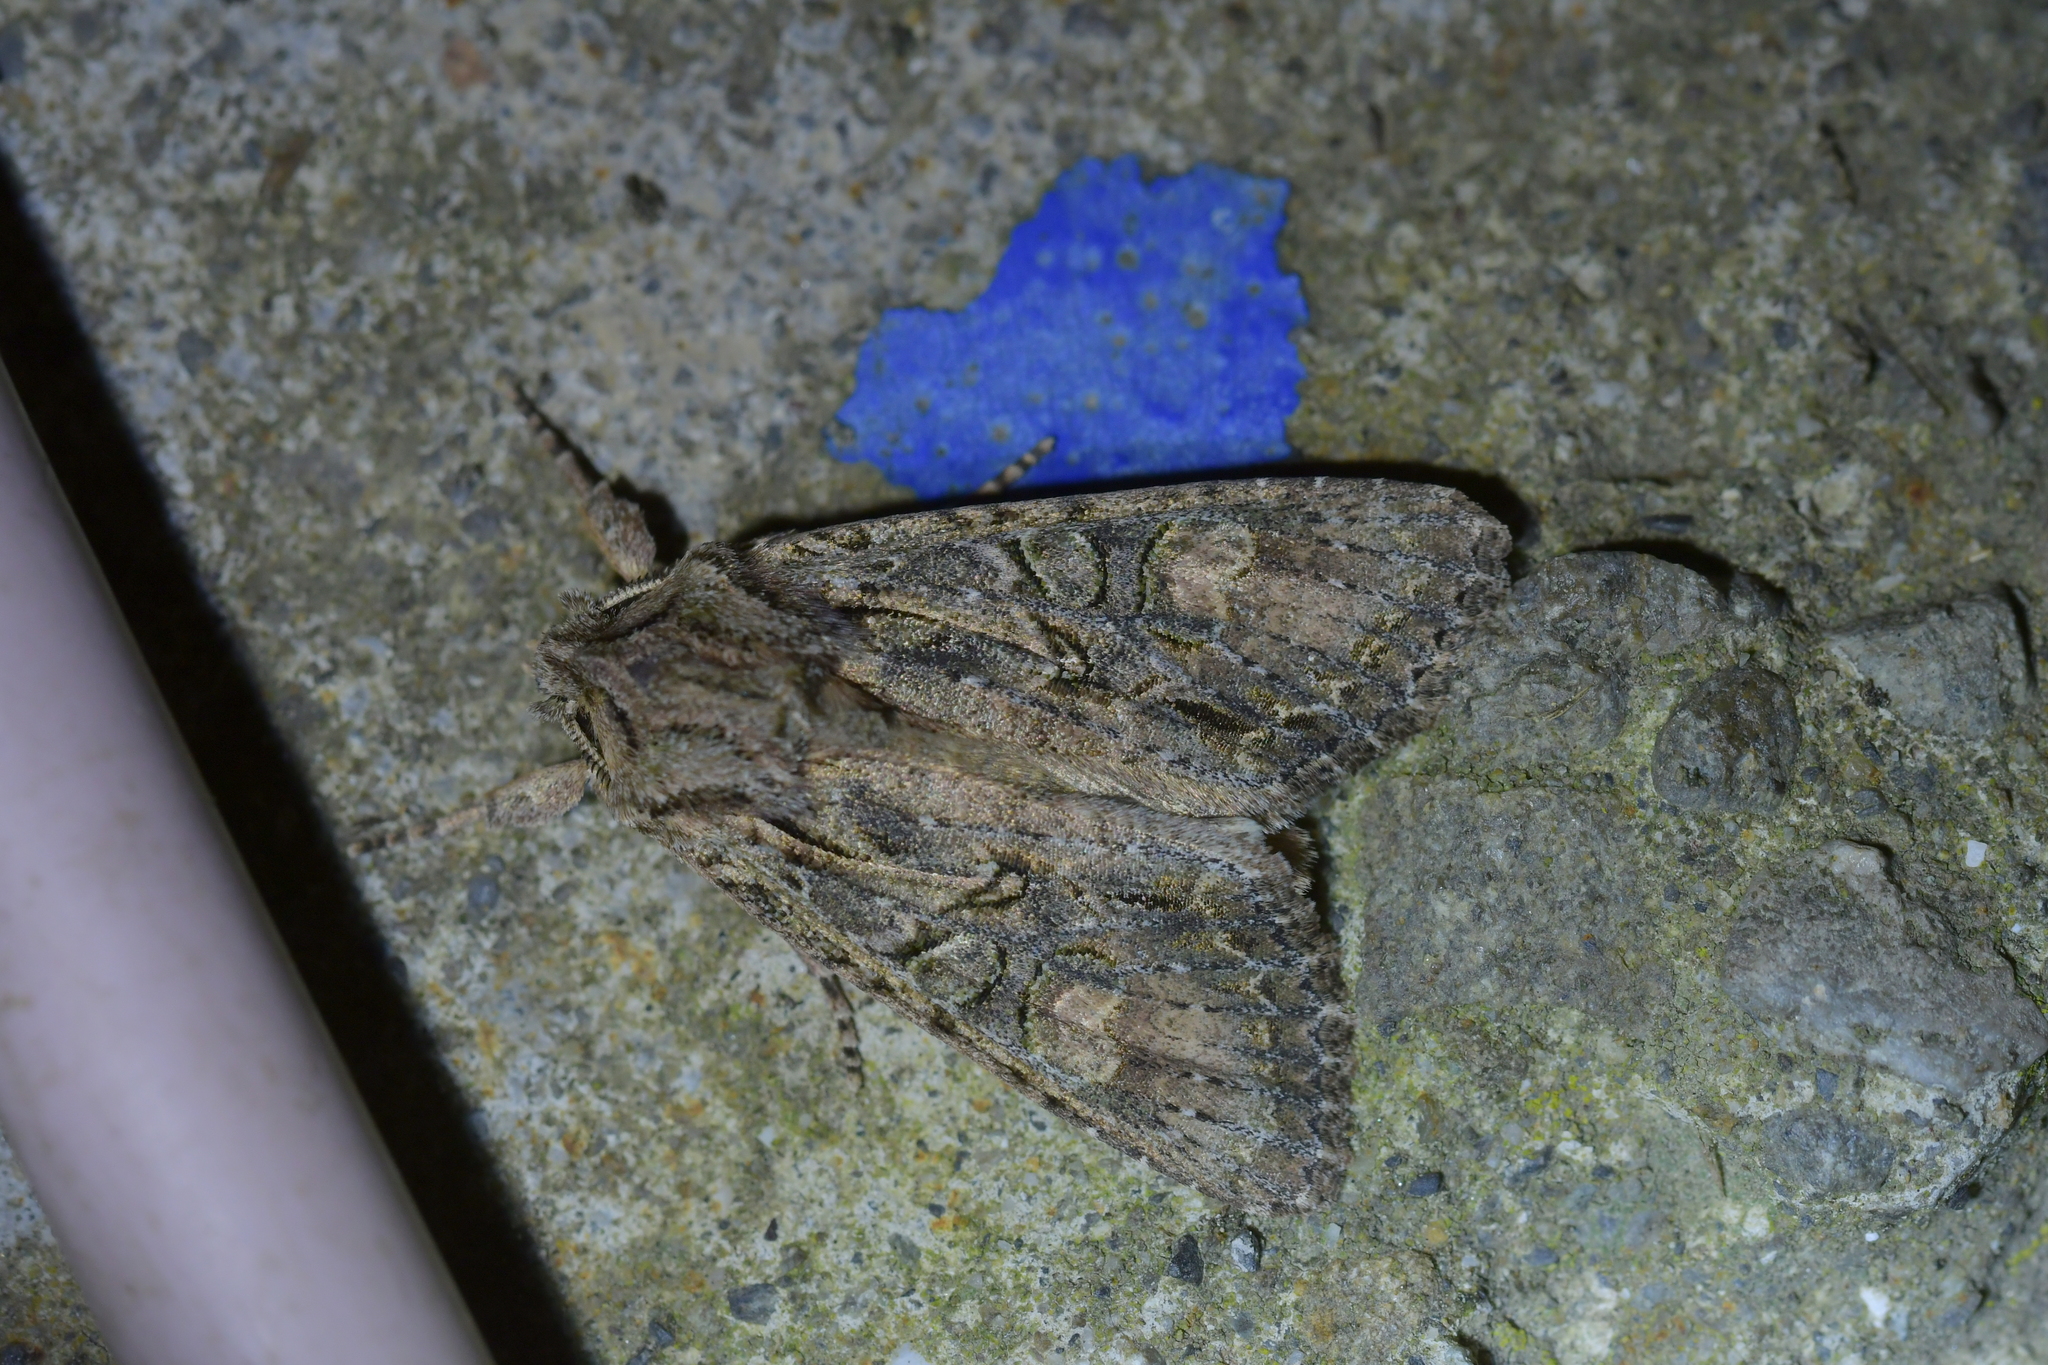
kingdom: Animalia
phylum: Arthropoda
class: Insecta
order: Lepidoptera
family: Noctuidae
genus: Ichneutica
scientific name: Ichneutica mutans
